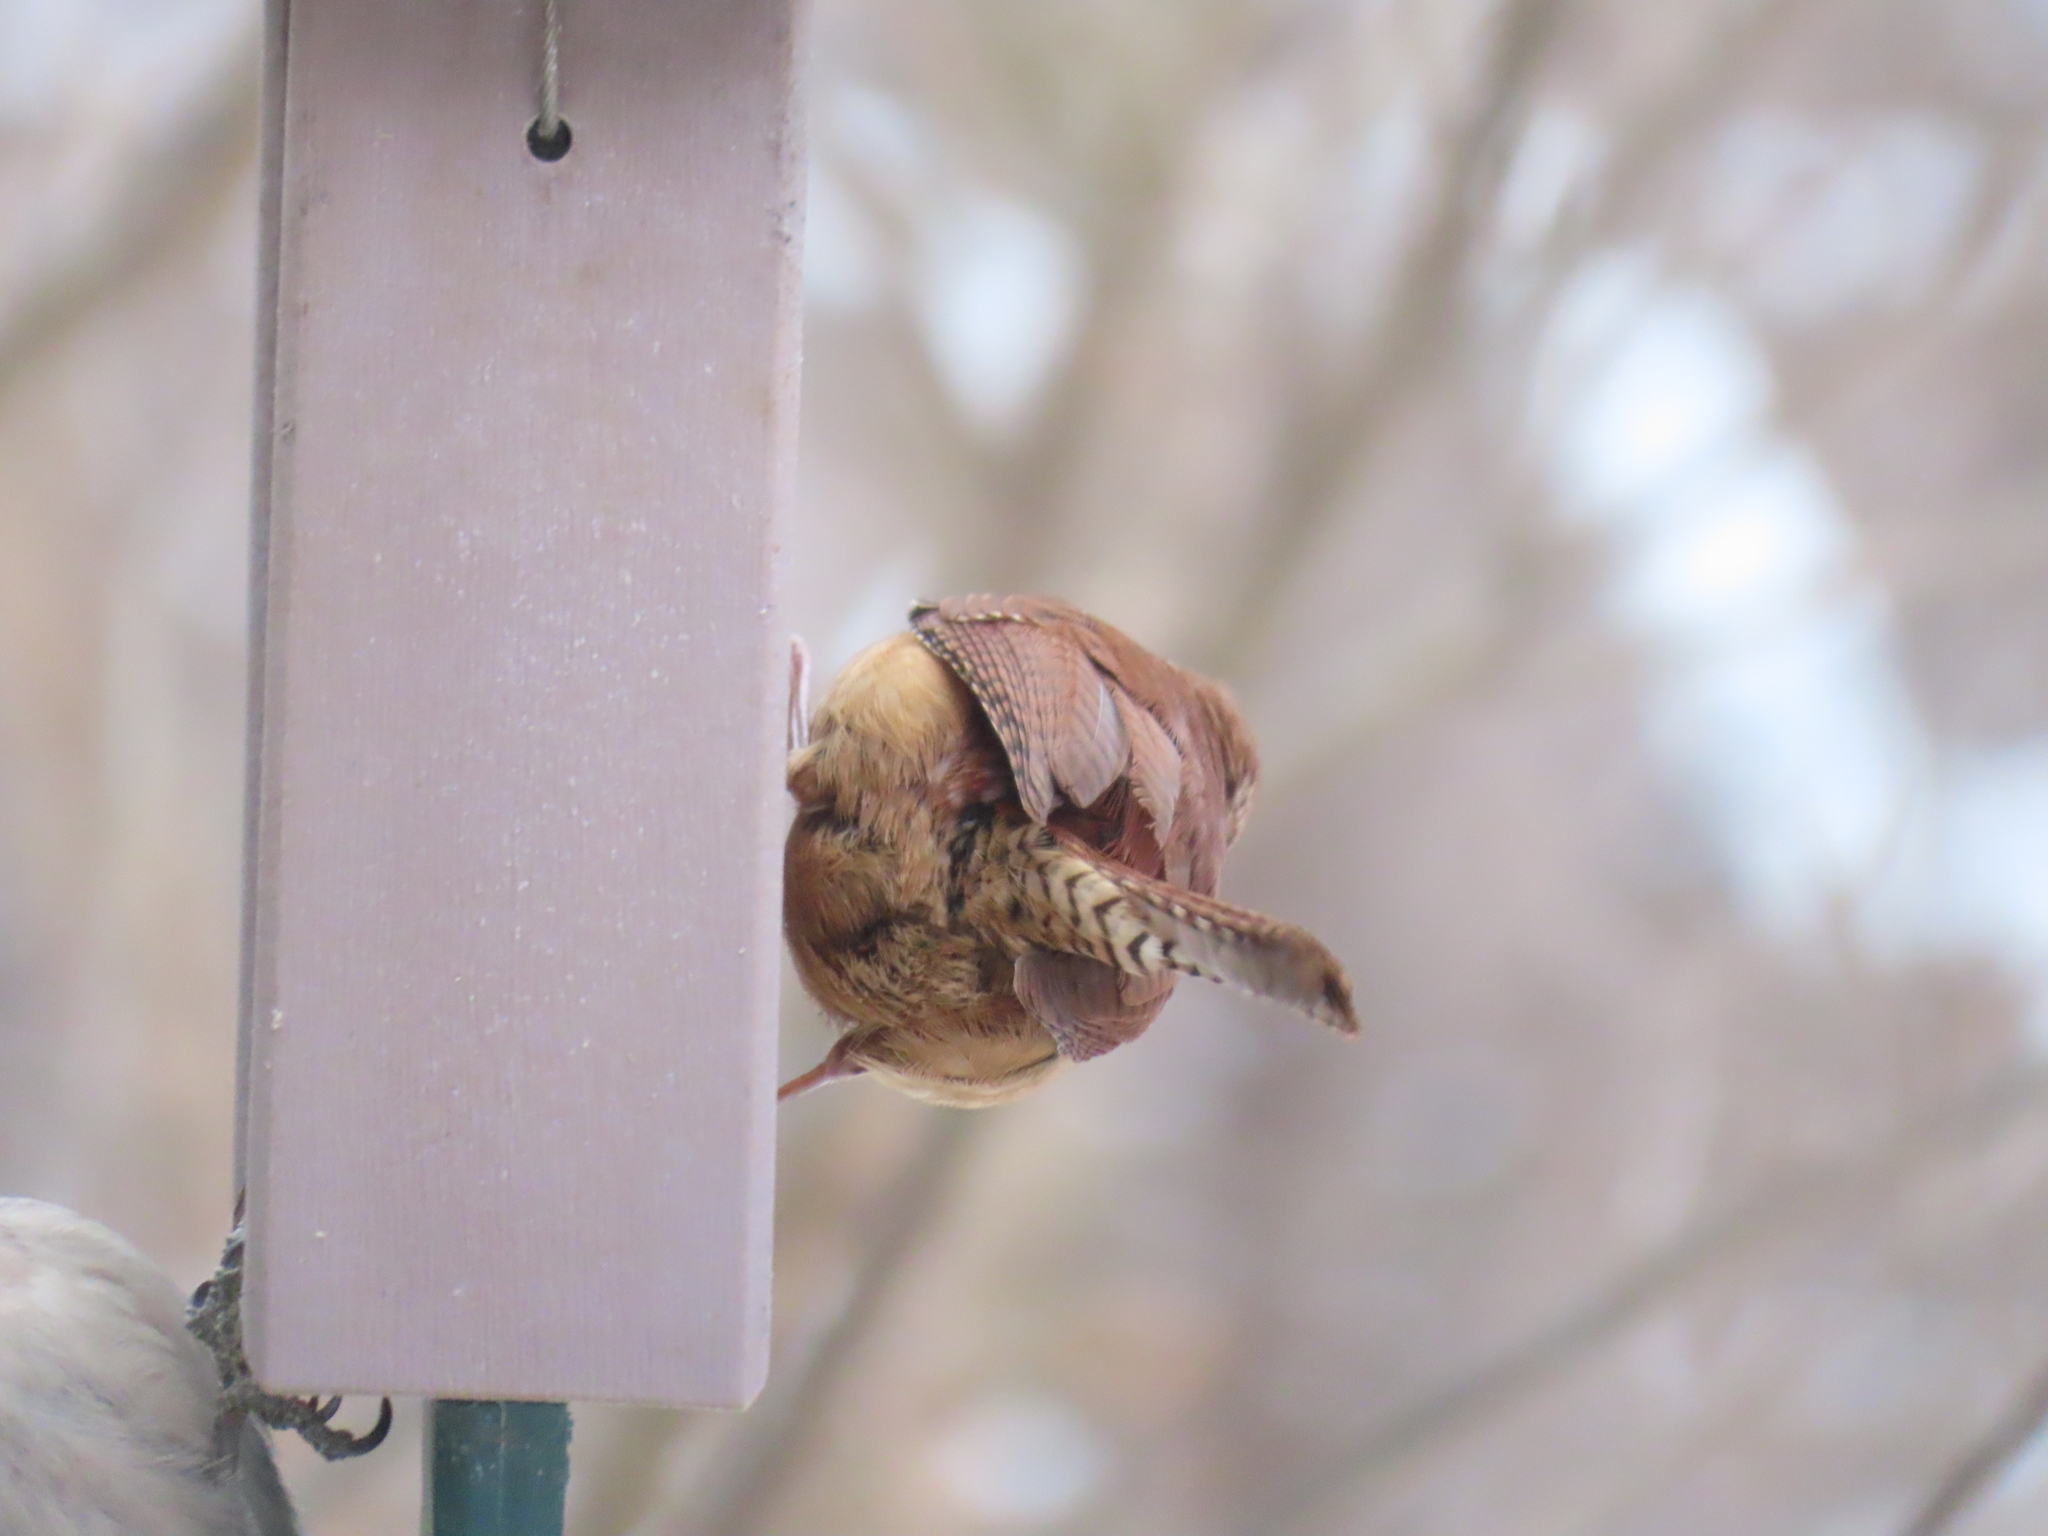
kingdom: Animalia
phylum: Chordata
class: Aves
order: Passeriformes
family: Troglodytidae
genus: Thryothorus
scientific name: Thryothorus ludovicianus
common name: Carolina wren
